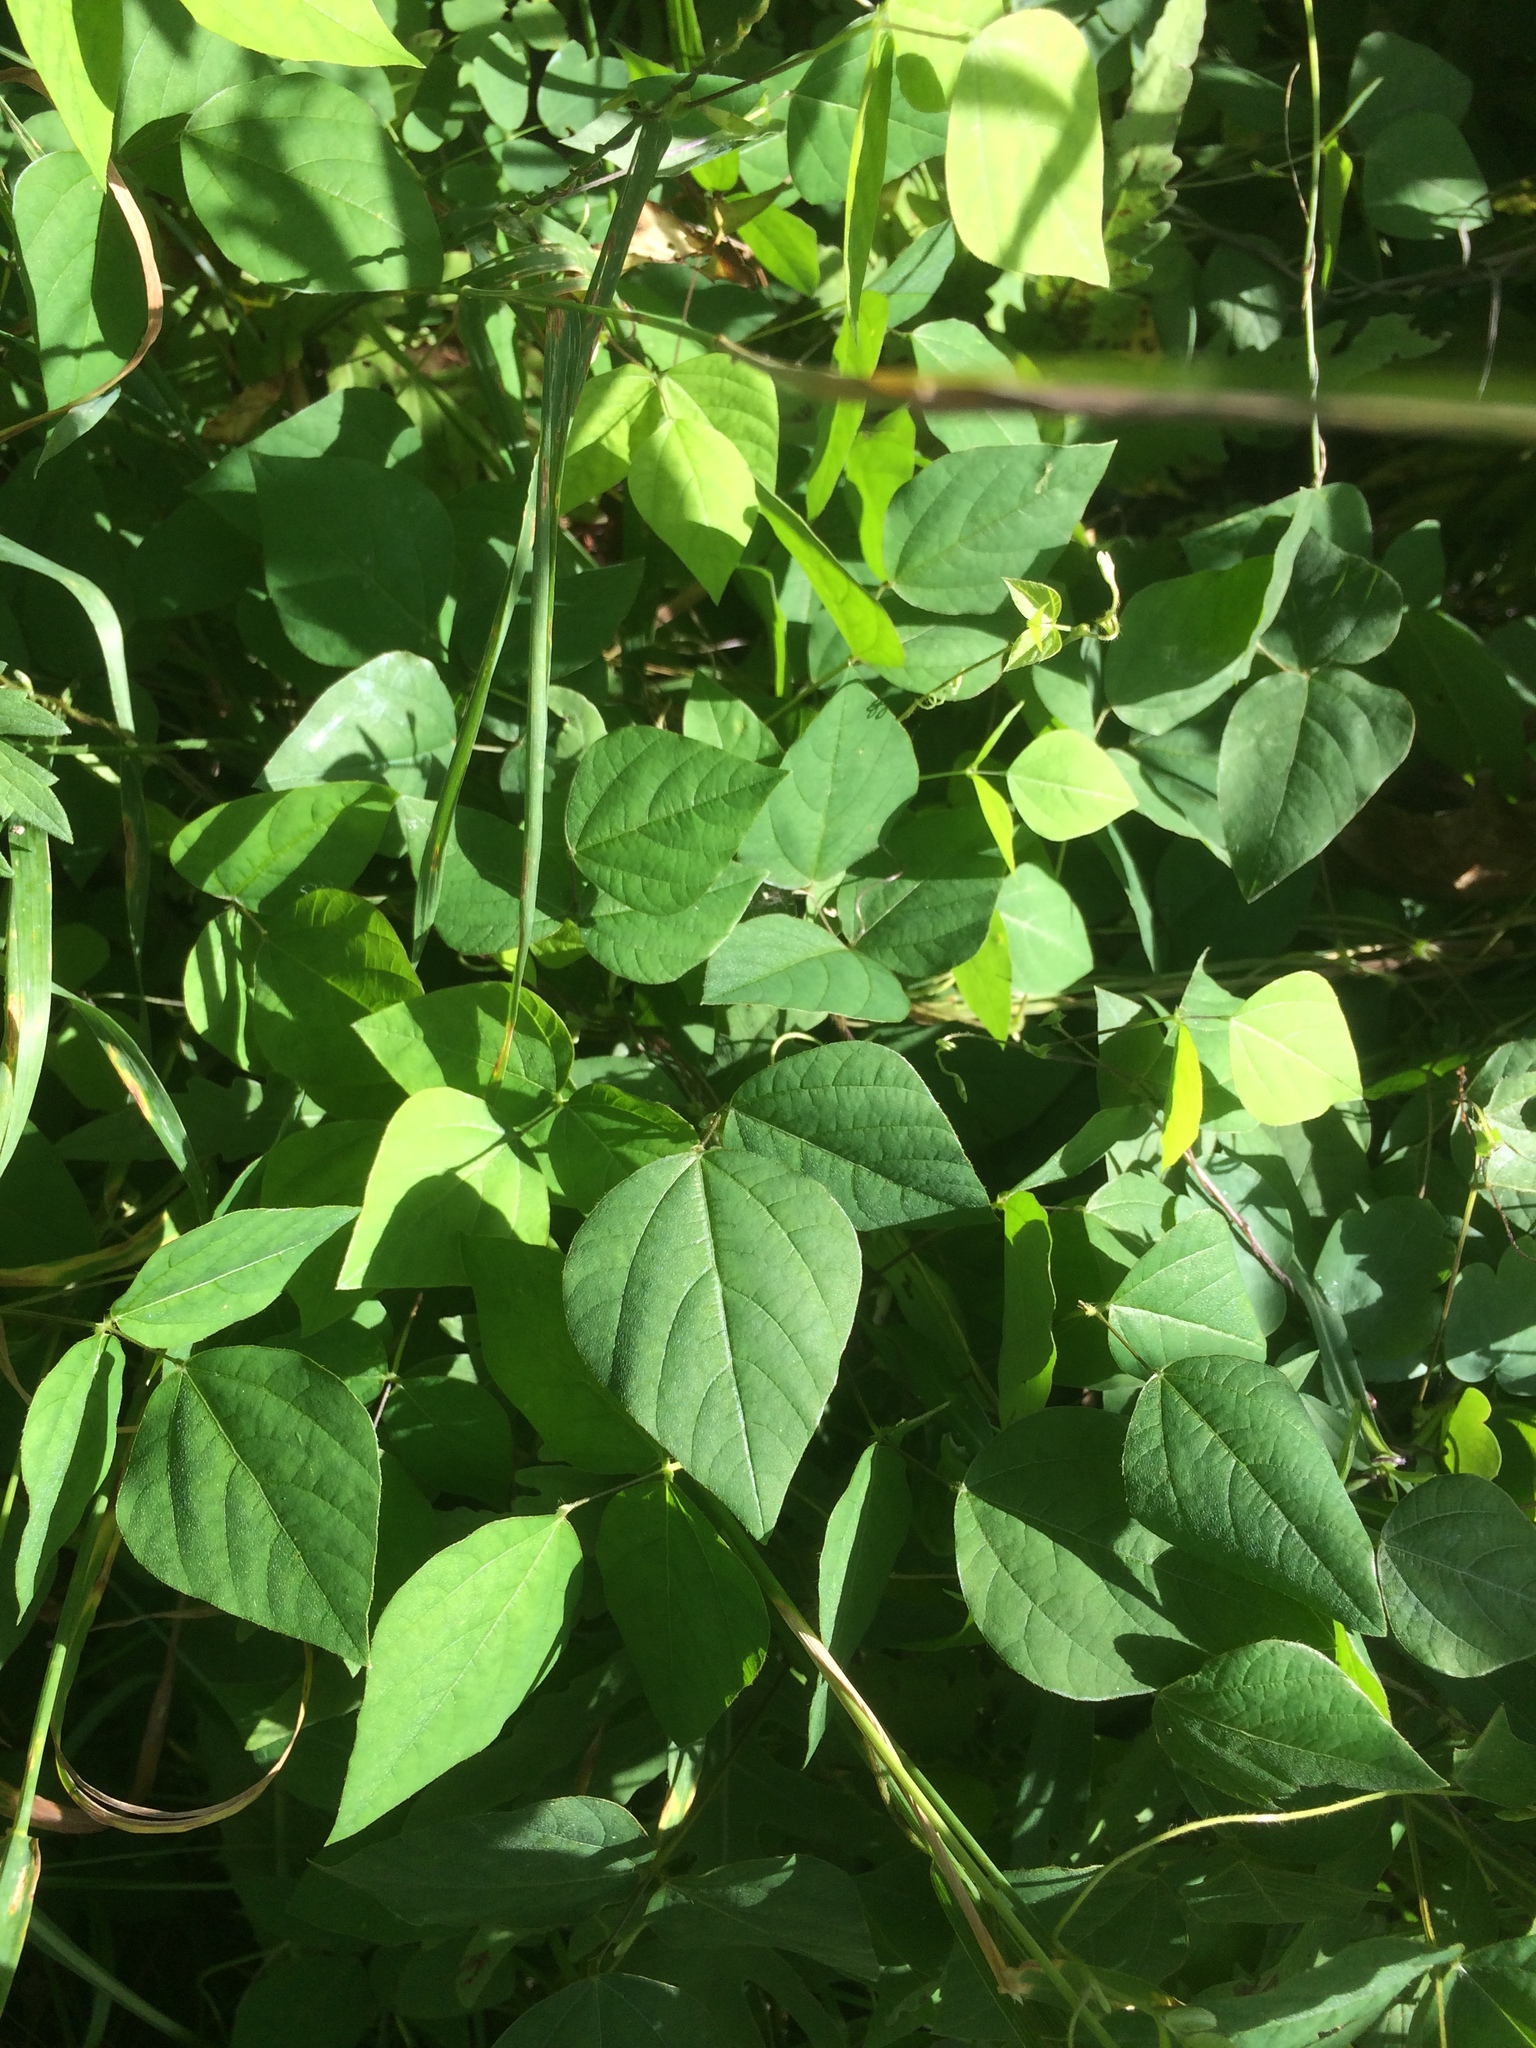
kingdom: Plantae
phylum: Tracheophyta
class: Magnoliopsida
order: Fabales
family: Fabaceae
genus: Amphicarpaea
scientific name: Amphicarpaea bracteata
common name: American hog peanut
